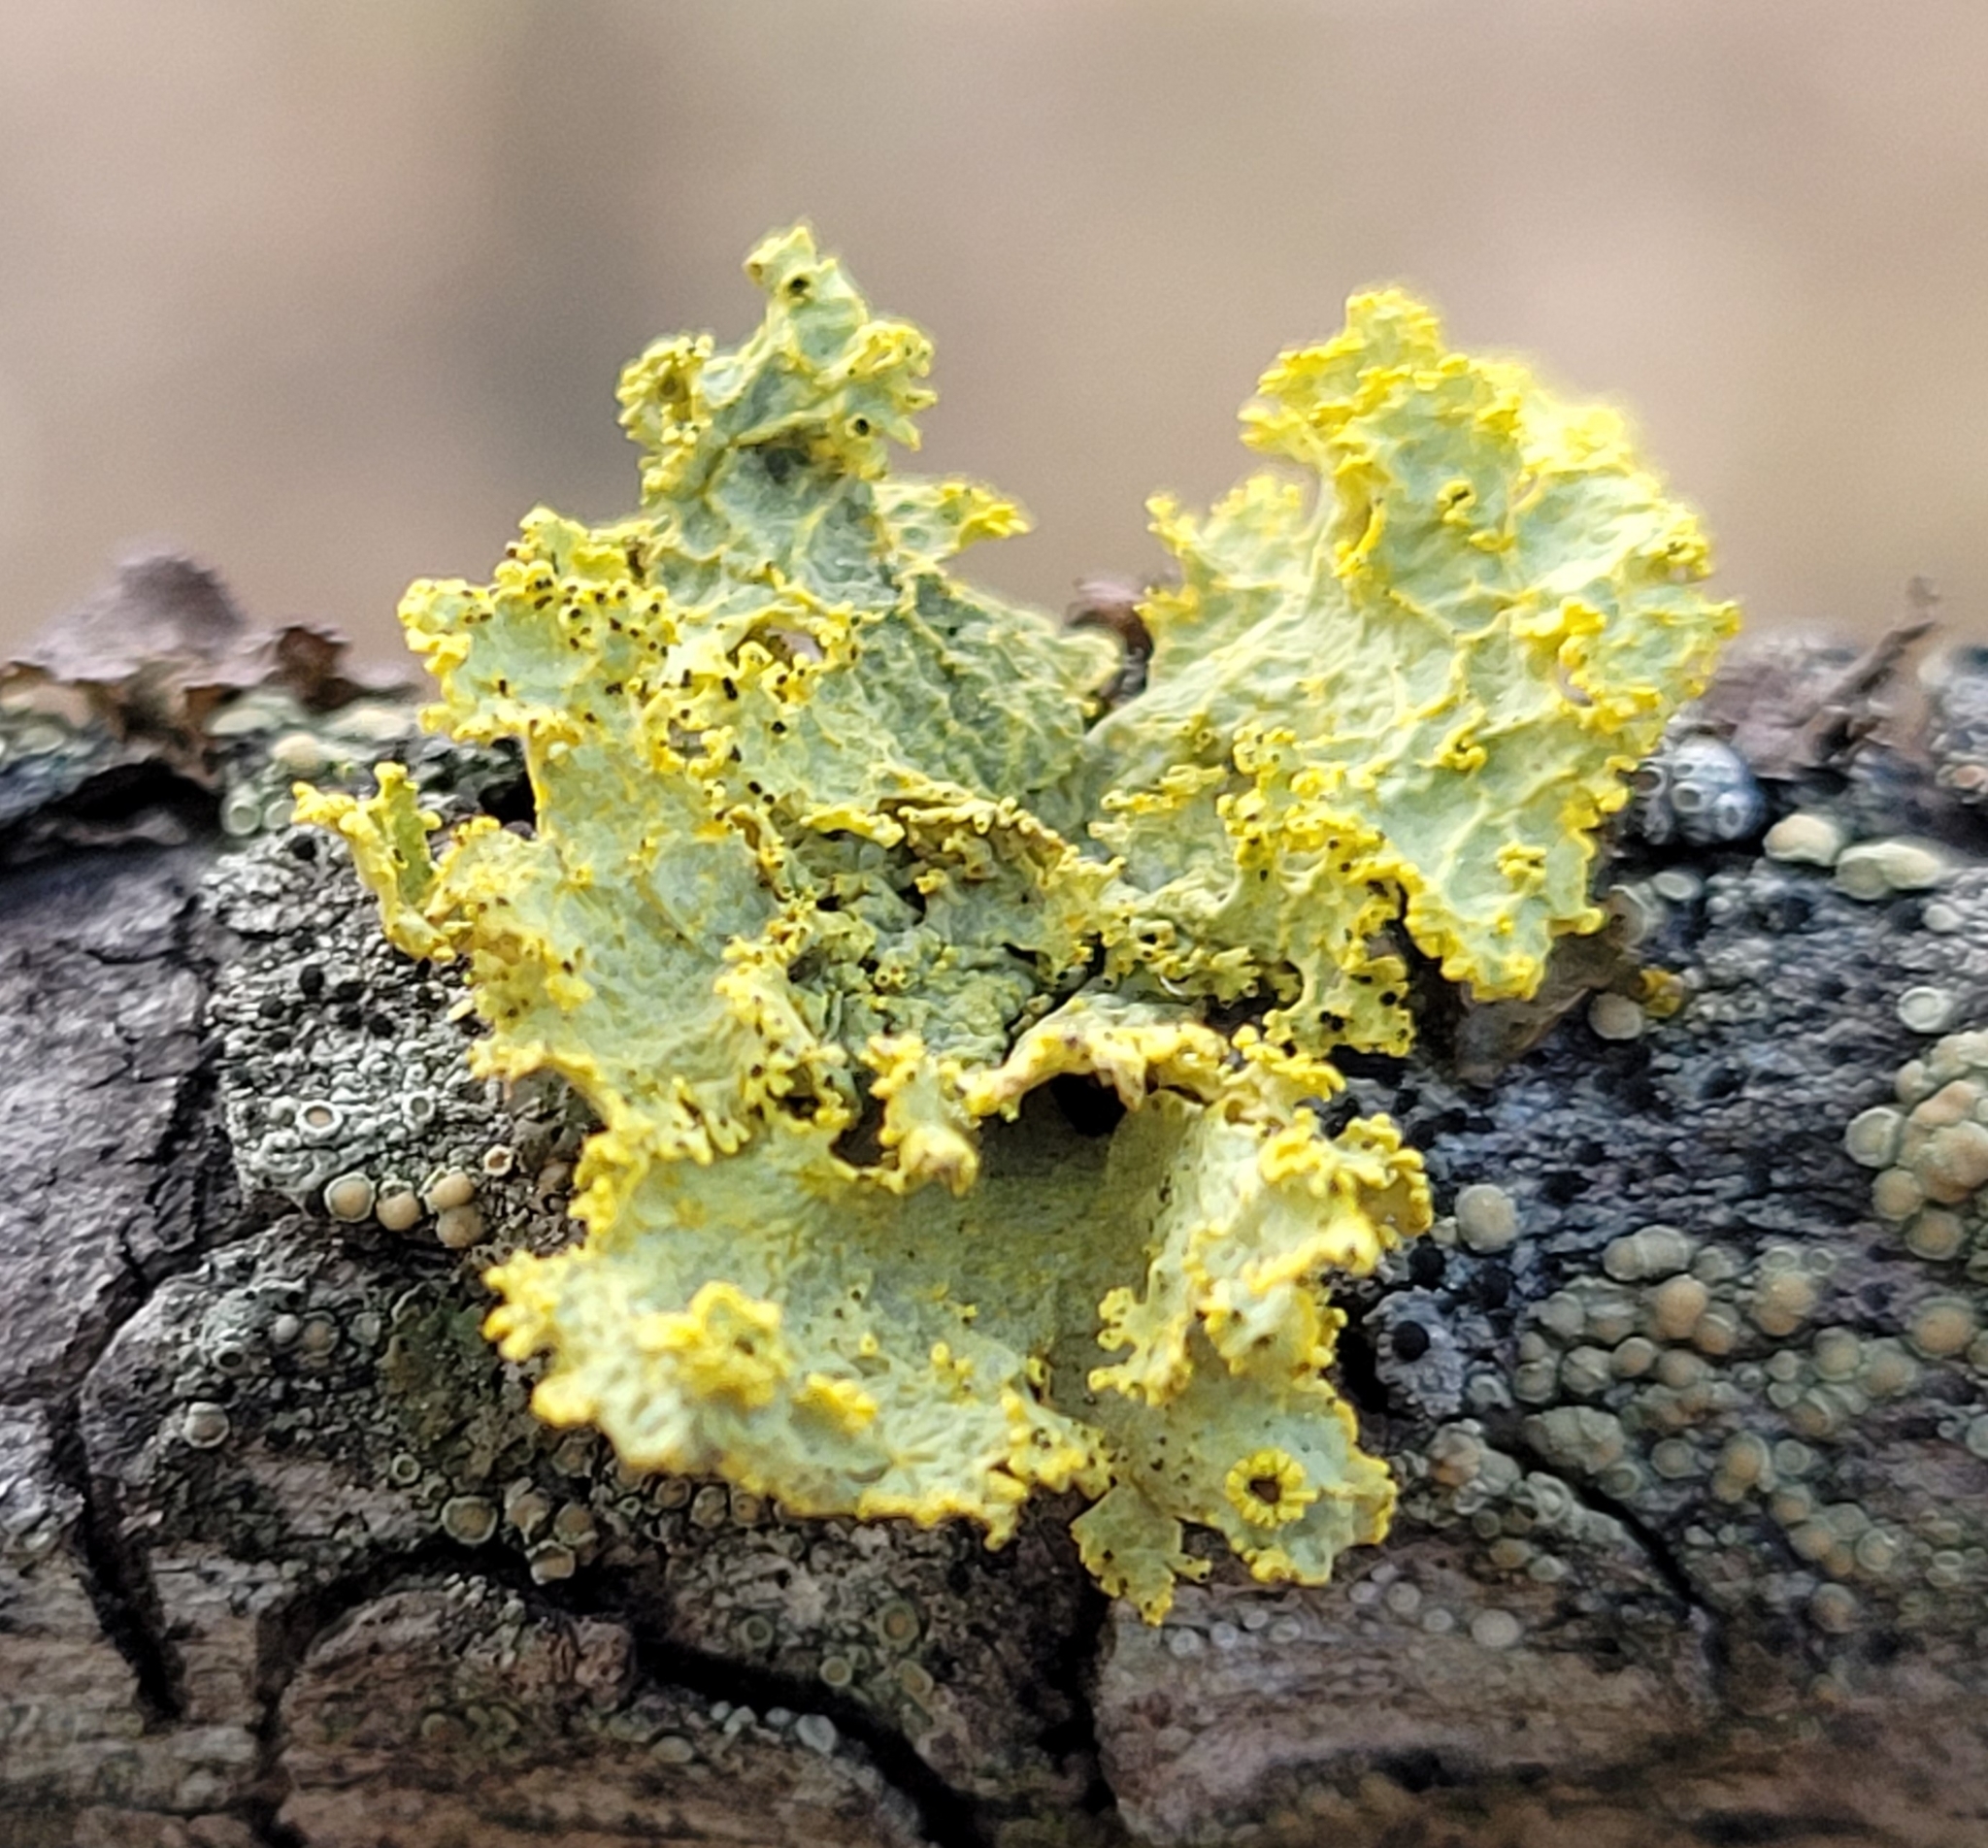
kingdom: Fungi
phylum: Ascomycota
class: Lecanoromycetes
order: Lecanorales
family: Parmeliaceae
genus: Vulpicida
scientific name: Vulpicida pinastri
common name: Powdered sunshine lichen
